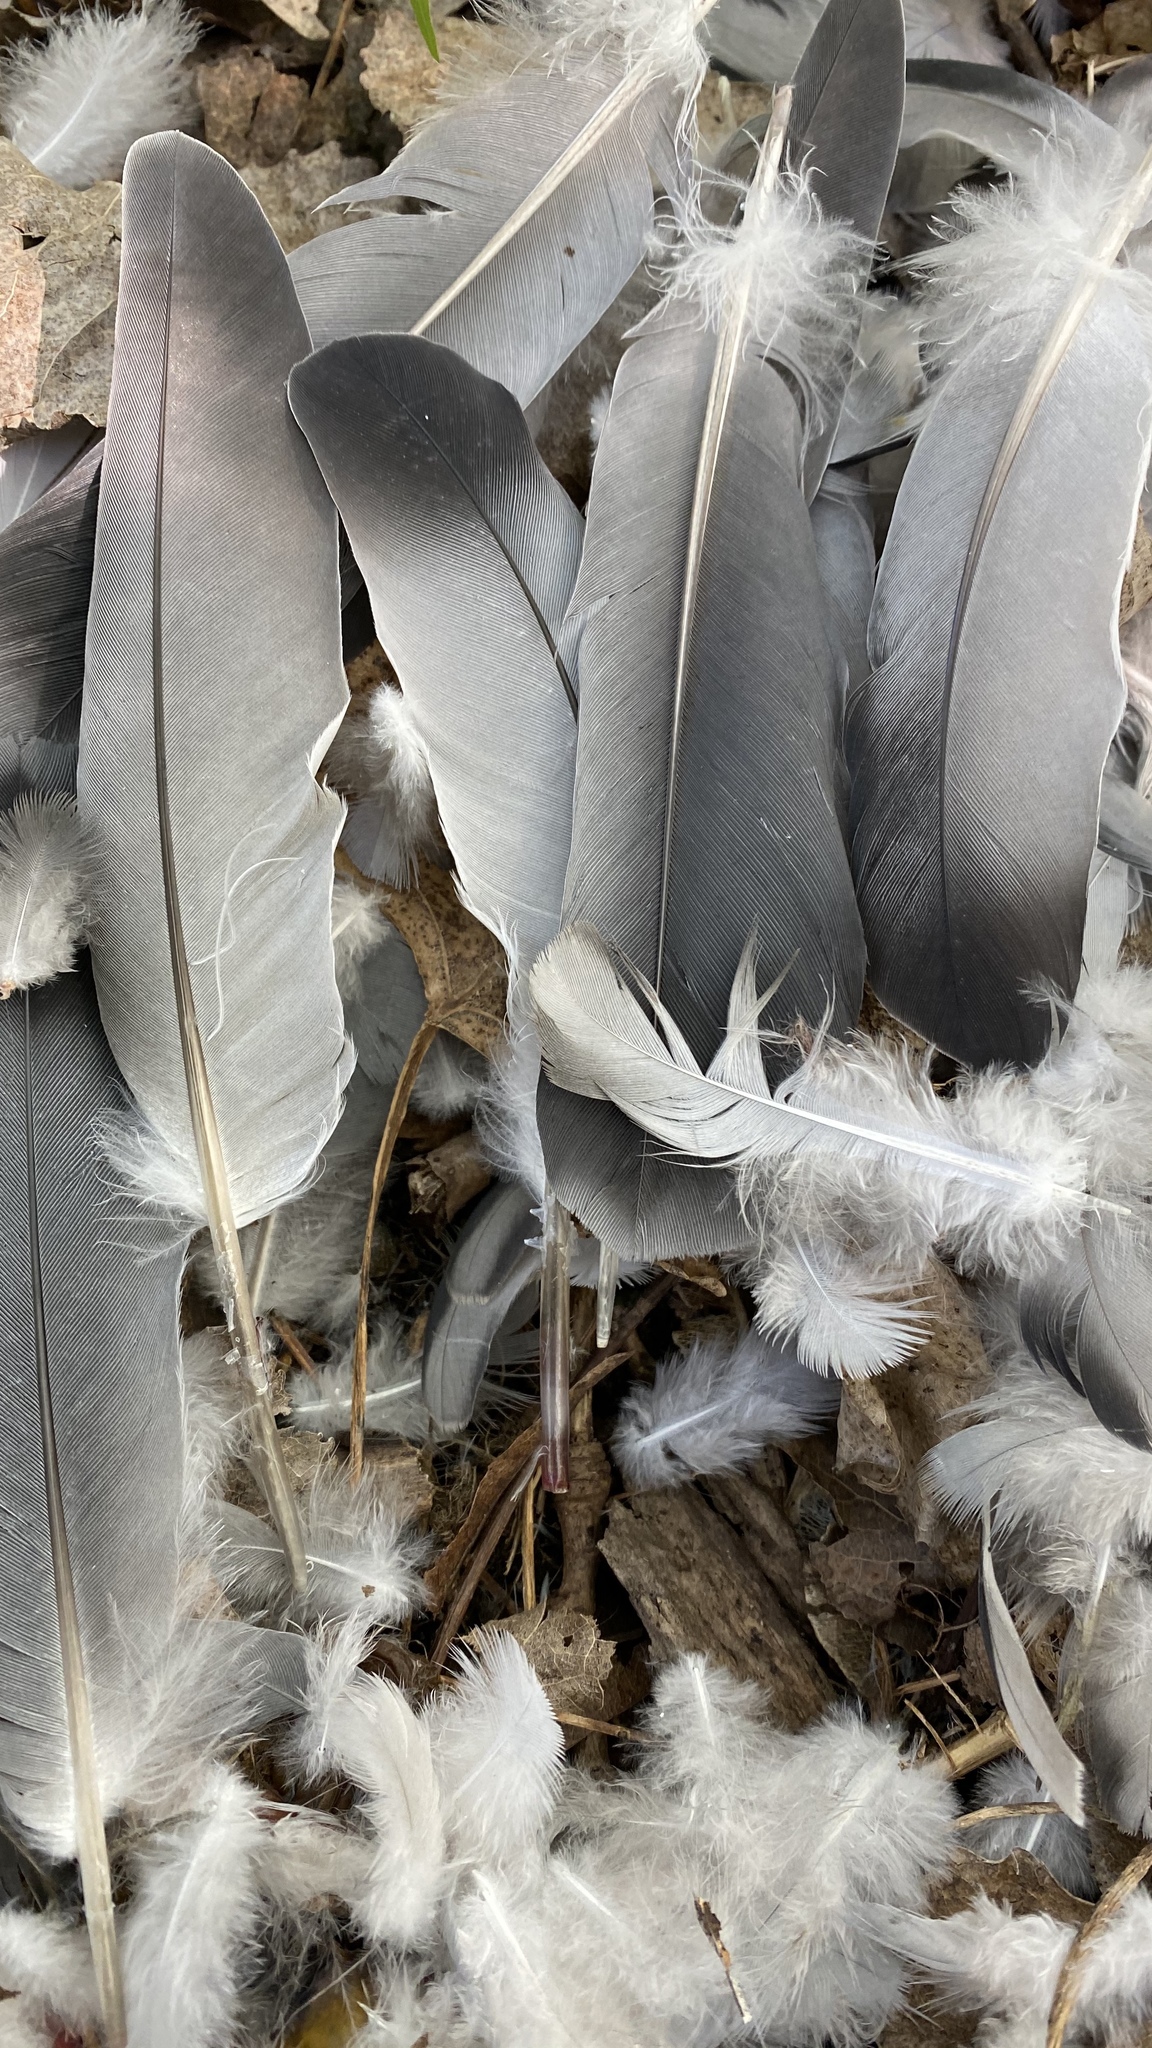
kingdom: Animalia
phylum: Chordata
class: Aves
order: Columbiformes
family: Columbidae
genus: Columba
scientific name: Columba livia
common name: Rock pigeon
